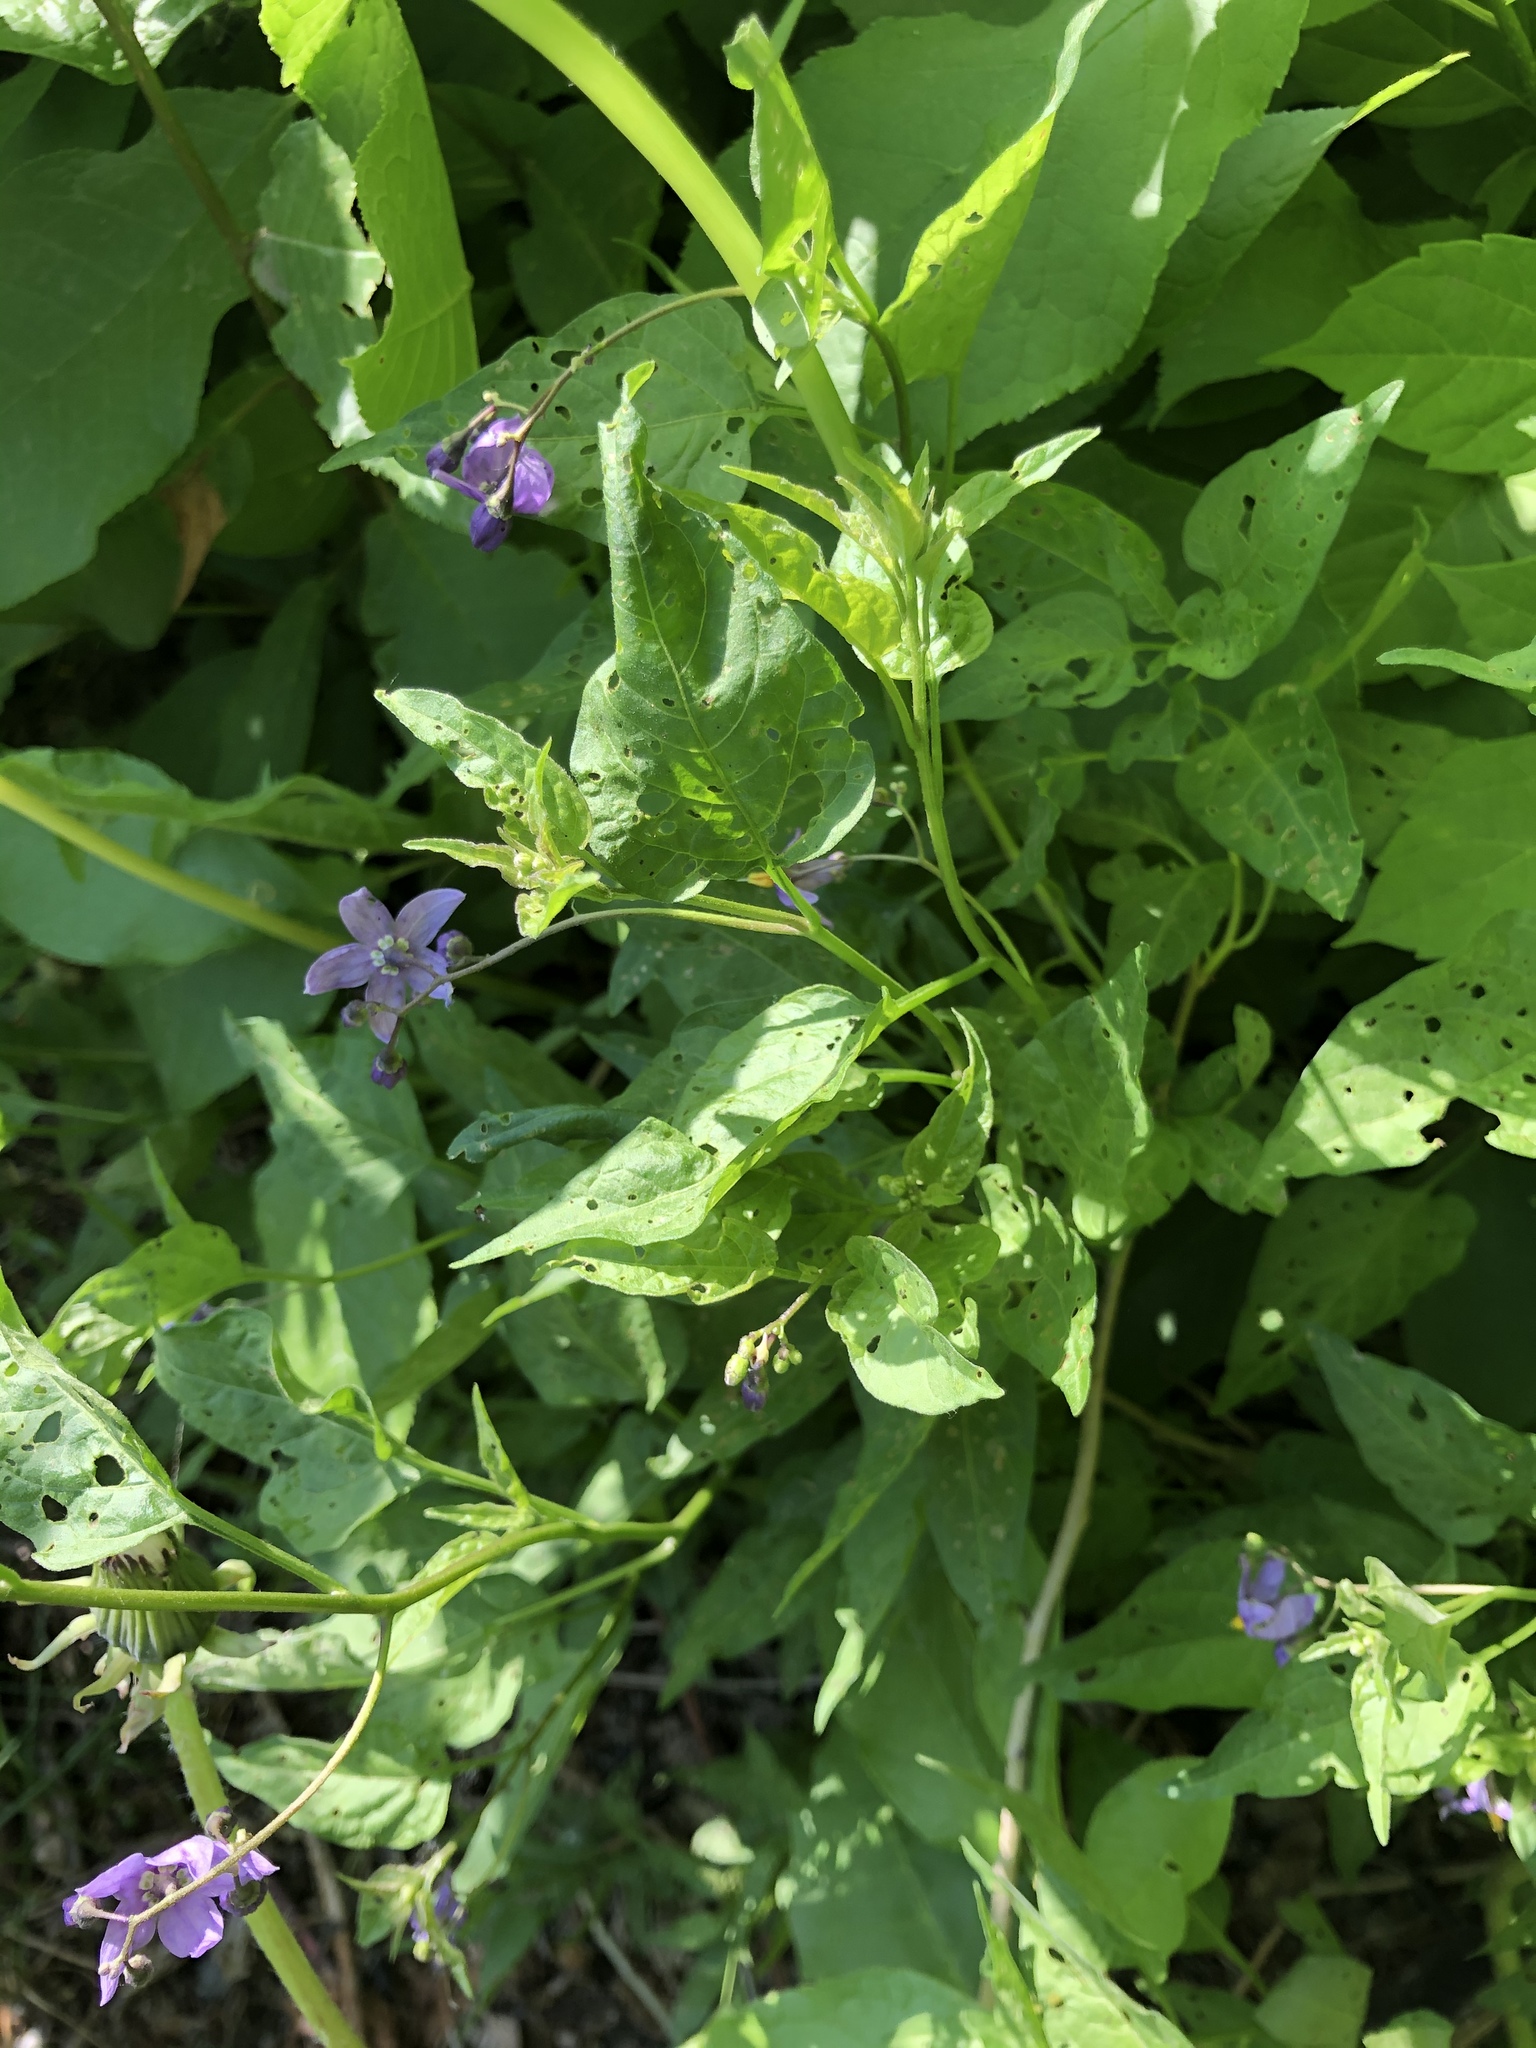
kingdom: Plantae
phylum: Tracheophyta
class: Magnoliopsida
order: Solanales
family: Solanaceae
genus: Solanum
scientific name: Solanum dulcamara
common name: Climbing nightshade
